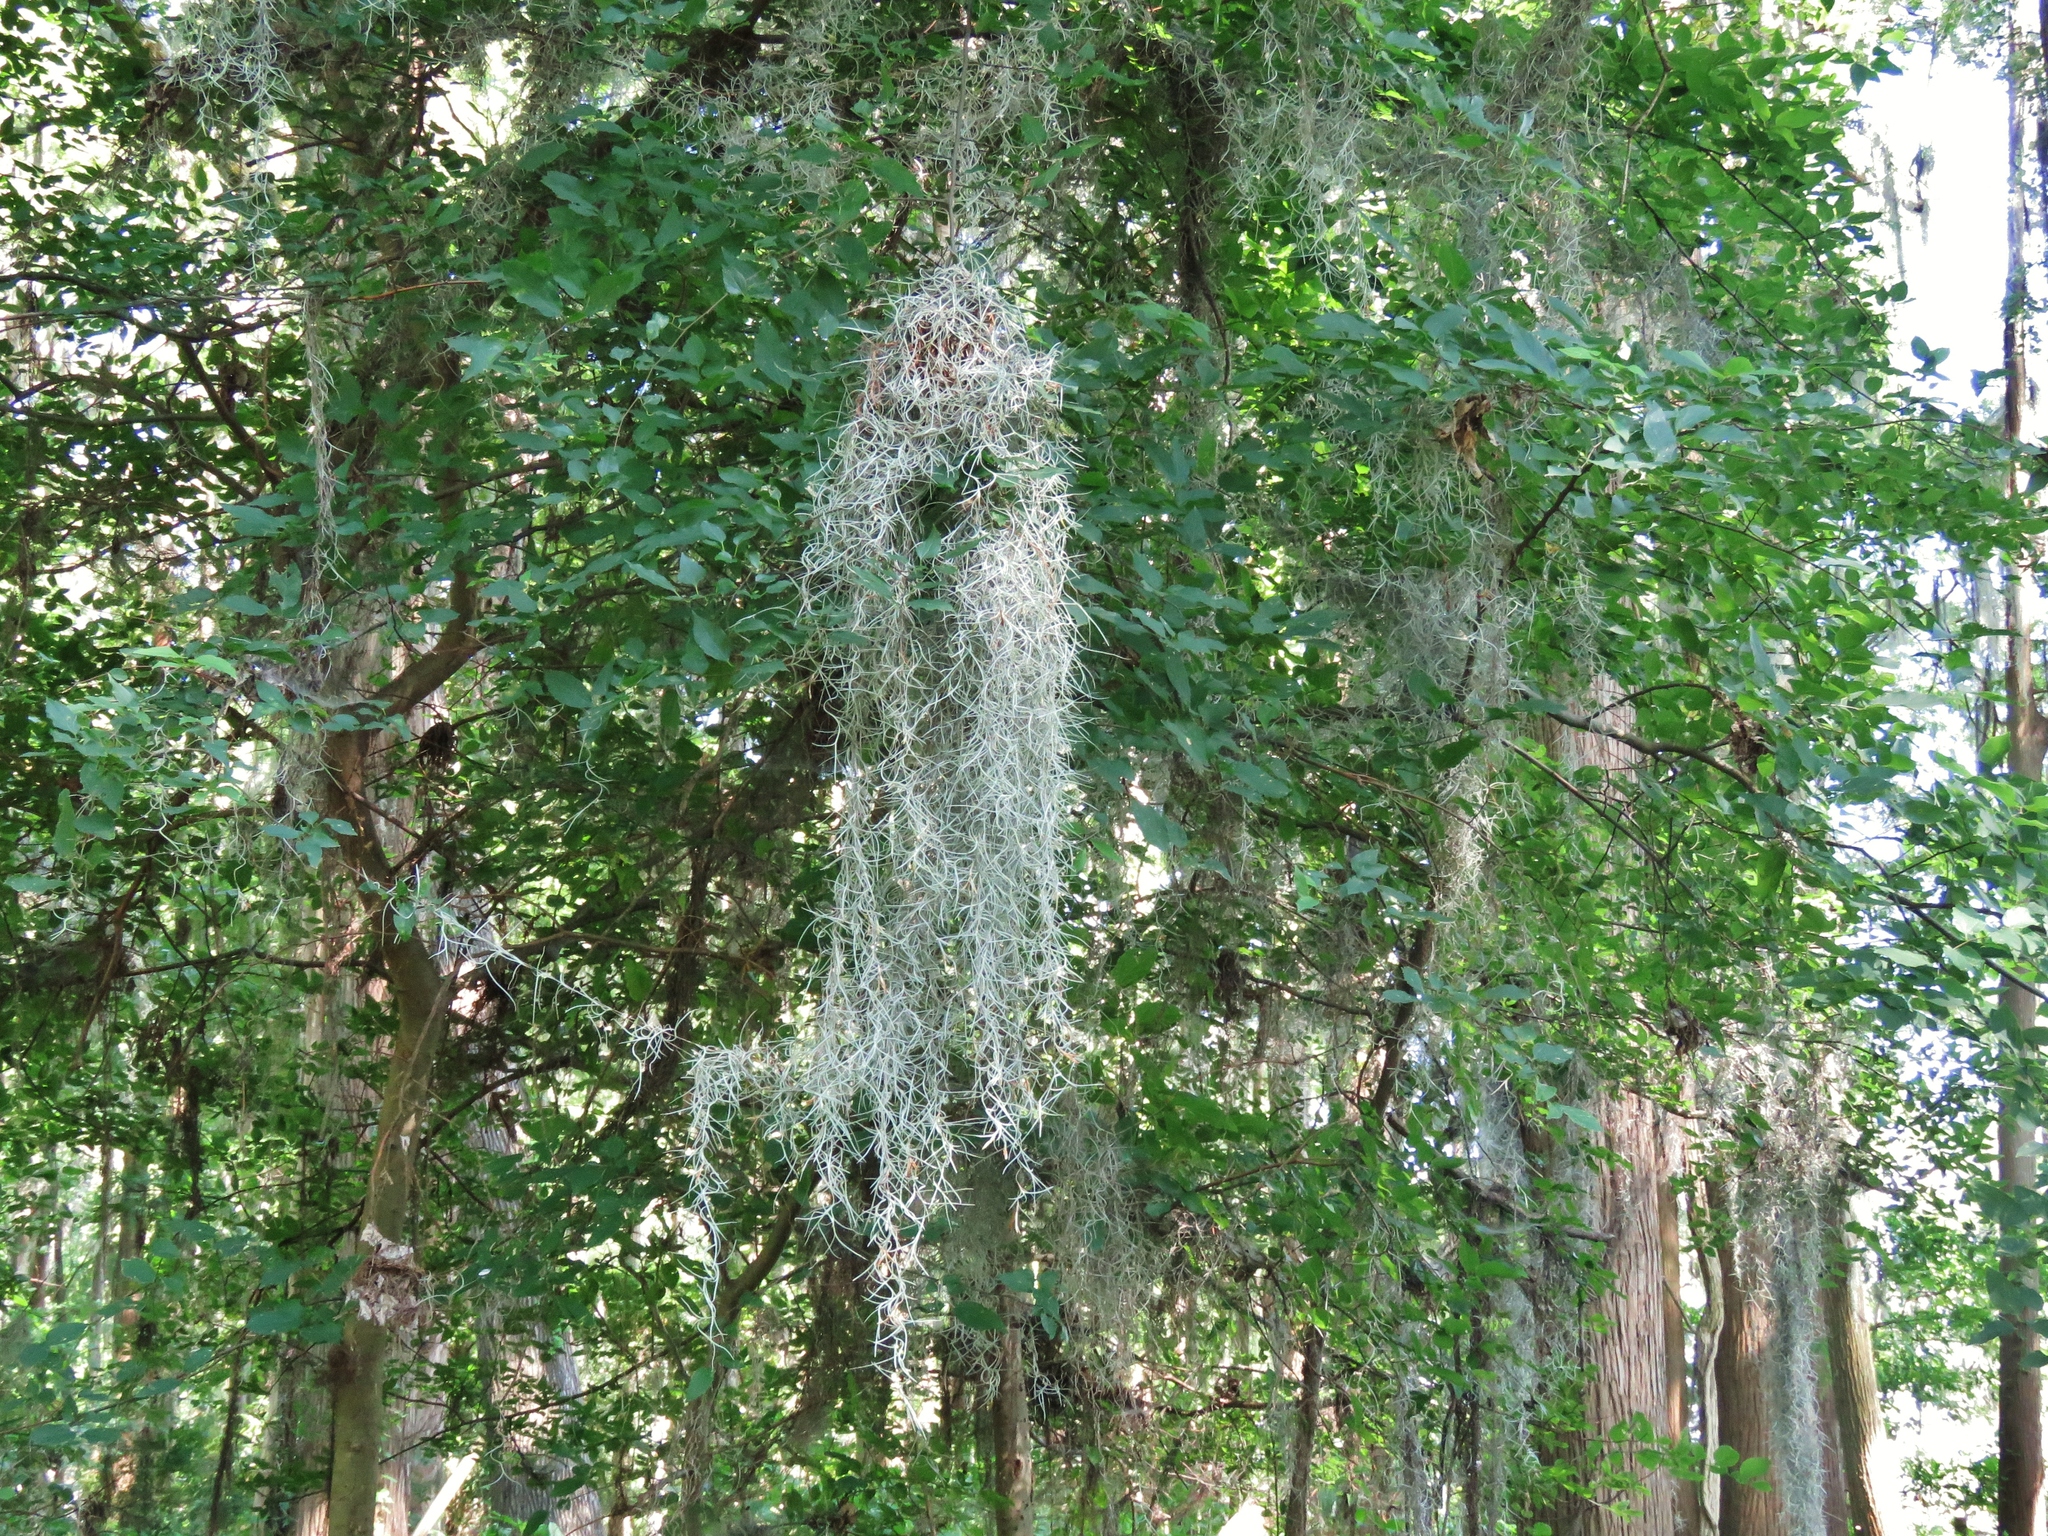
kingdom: Plantae
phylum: Tracheophyta
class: Liliopsida
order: Poales
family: Bromeliaceae
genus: Tillandsia
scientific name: Tillandsia usneoides
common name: Spanish moss
